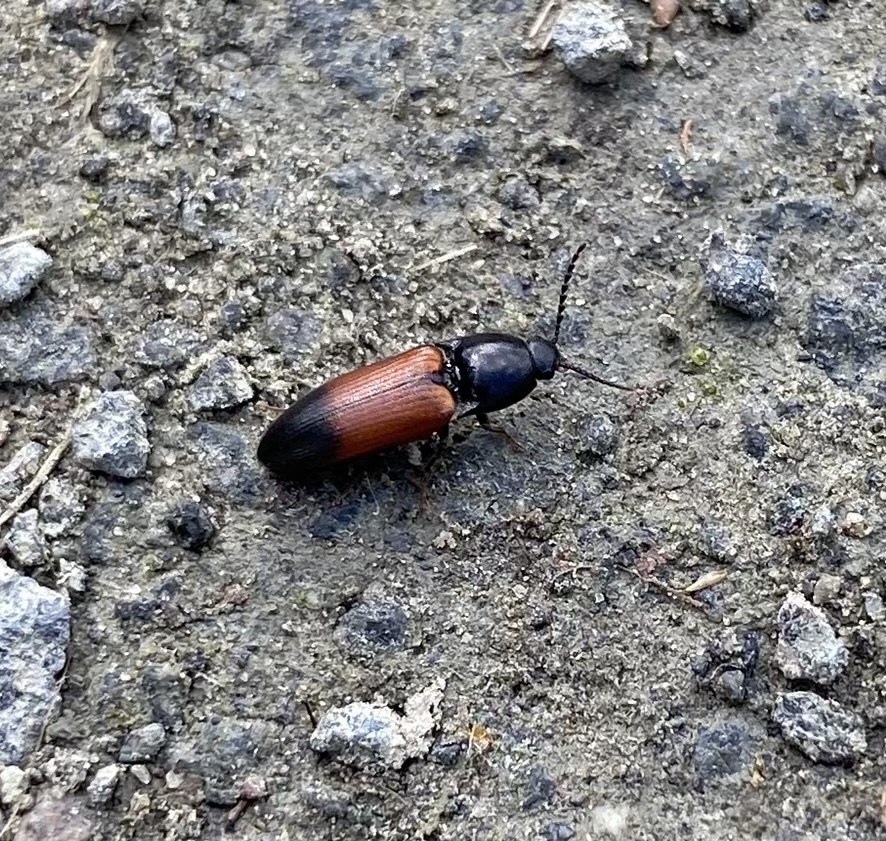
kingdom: Animalia
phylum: Arthropoda
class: Insecta
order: Coleoptera
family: Elateridae
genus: Ampedus
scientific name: Ampedus balteatus
